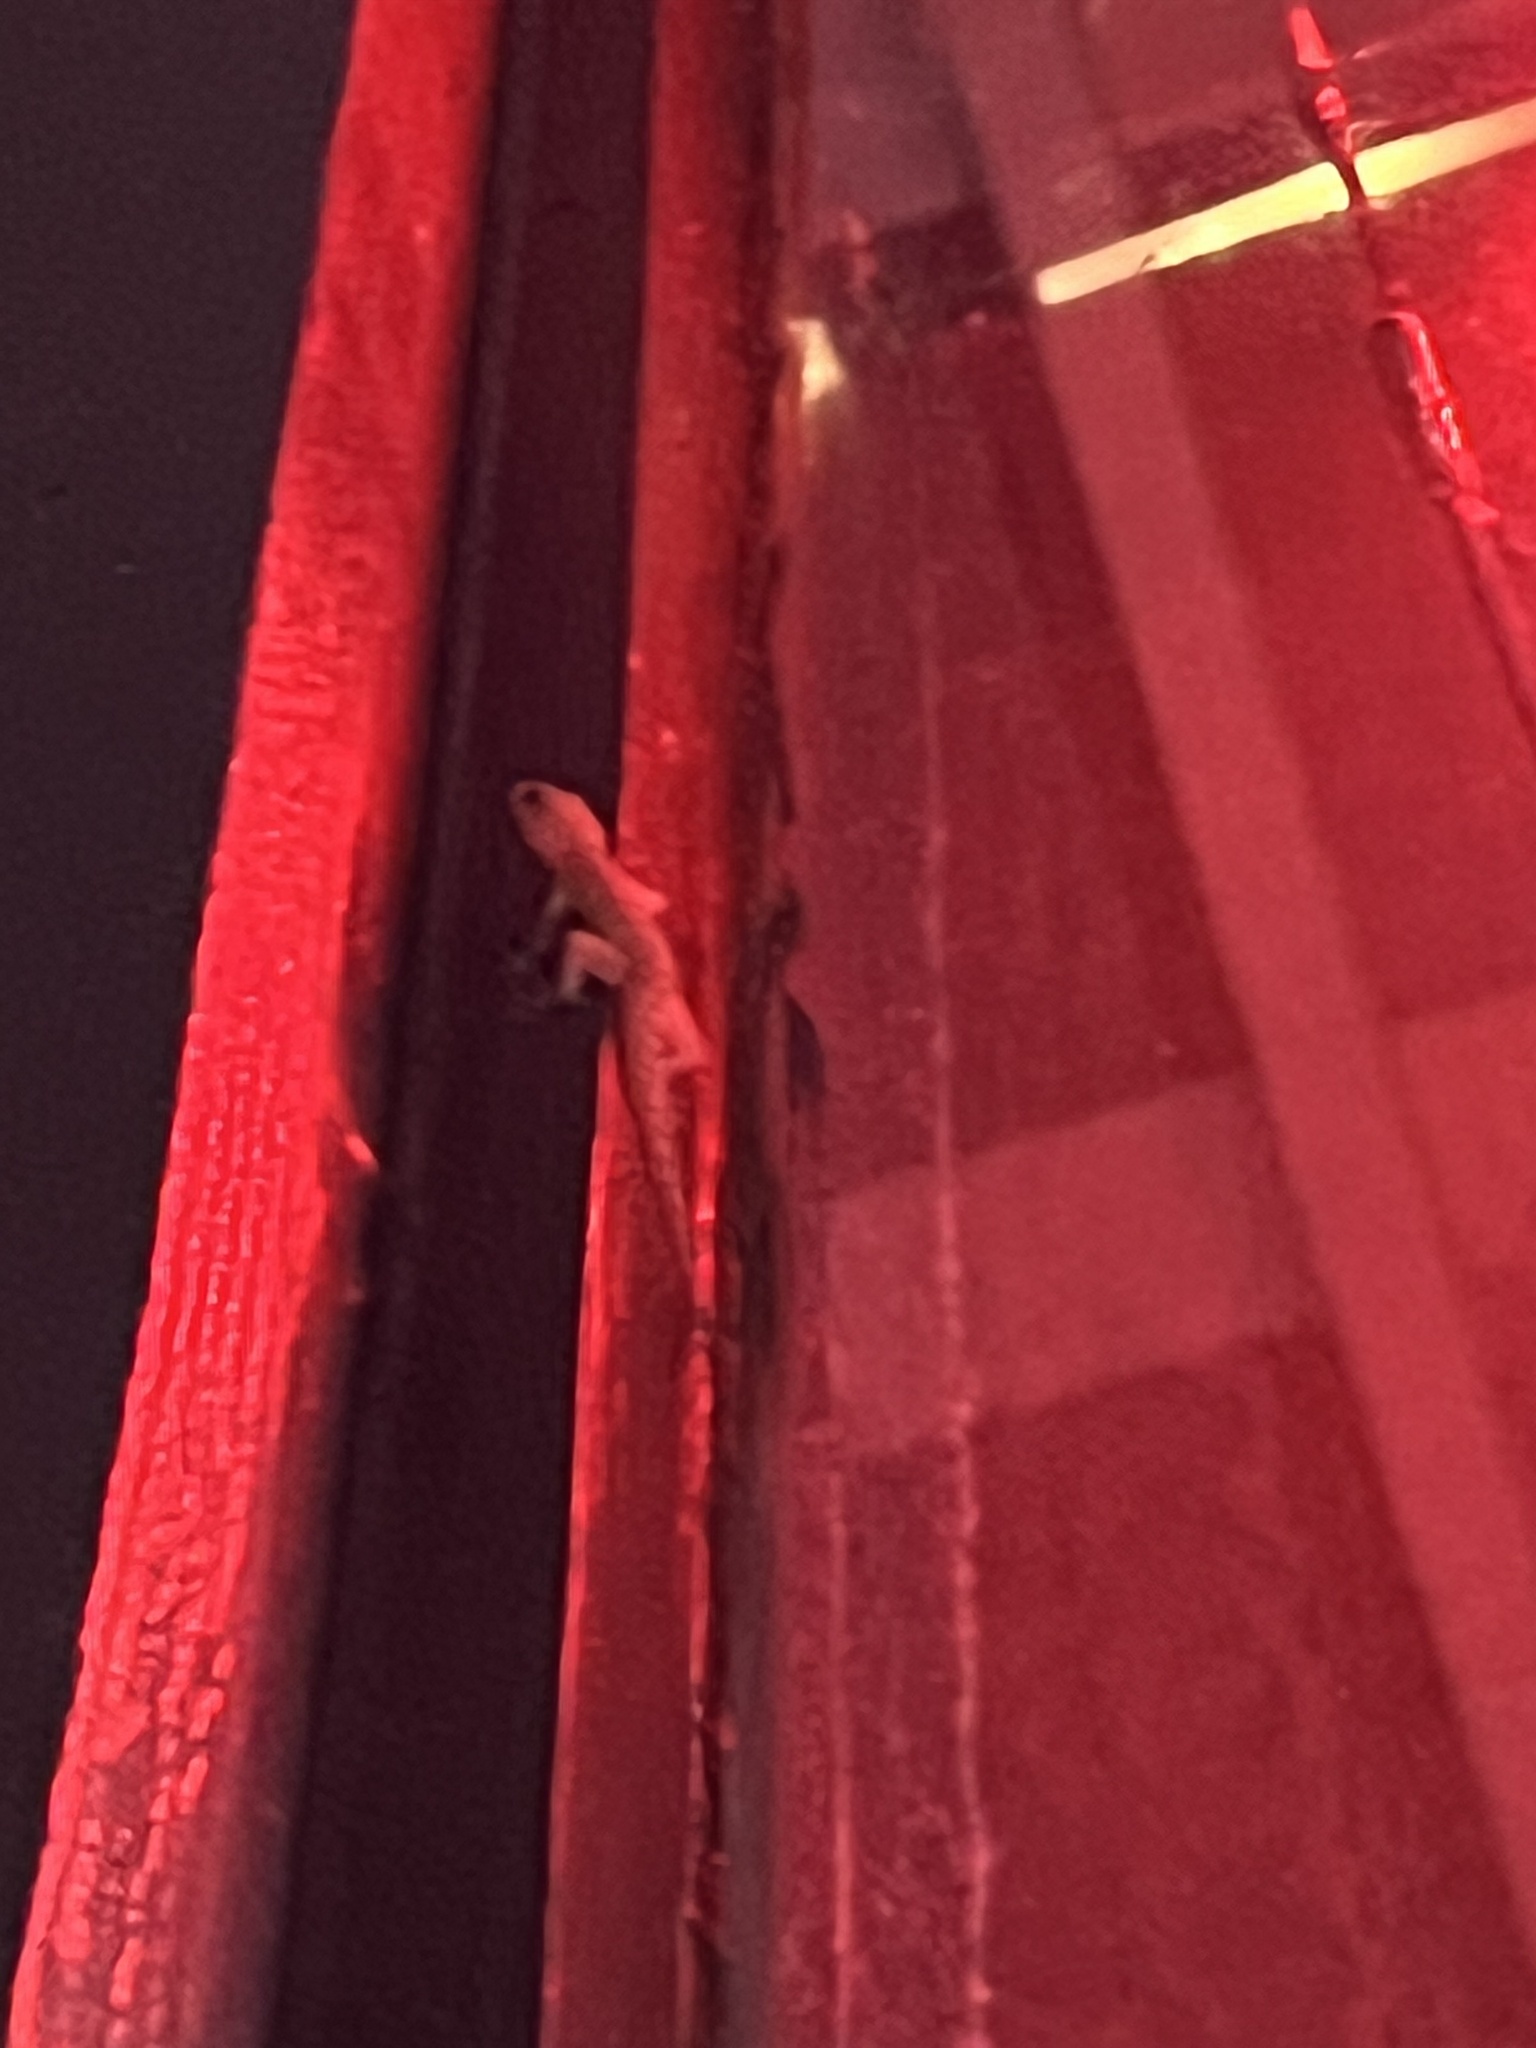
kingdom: Animalia
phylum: Chordata
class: Squamata
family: Gekkonidae
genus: Hemidactylus
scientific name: Hemidactylus parvimaculatus
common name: Spotted house gecko
